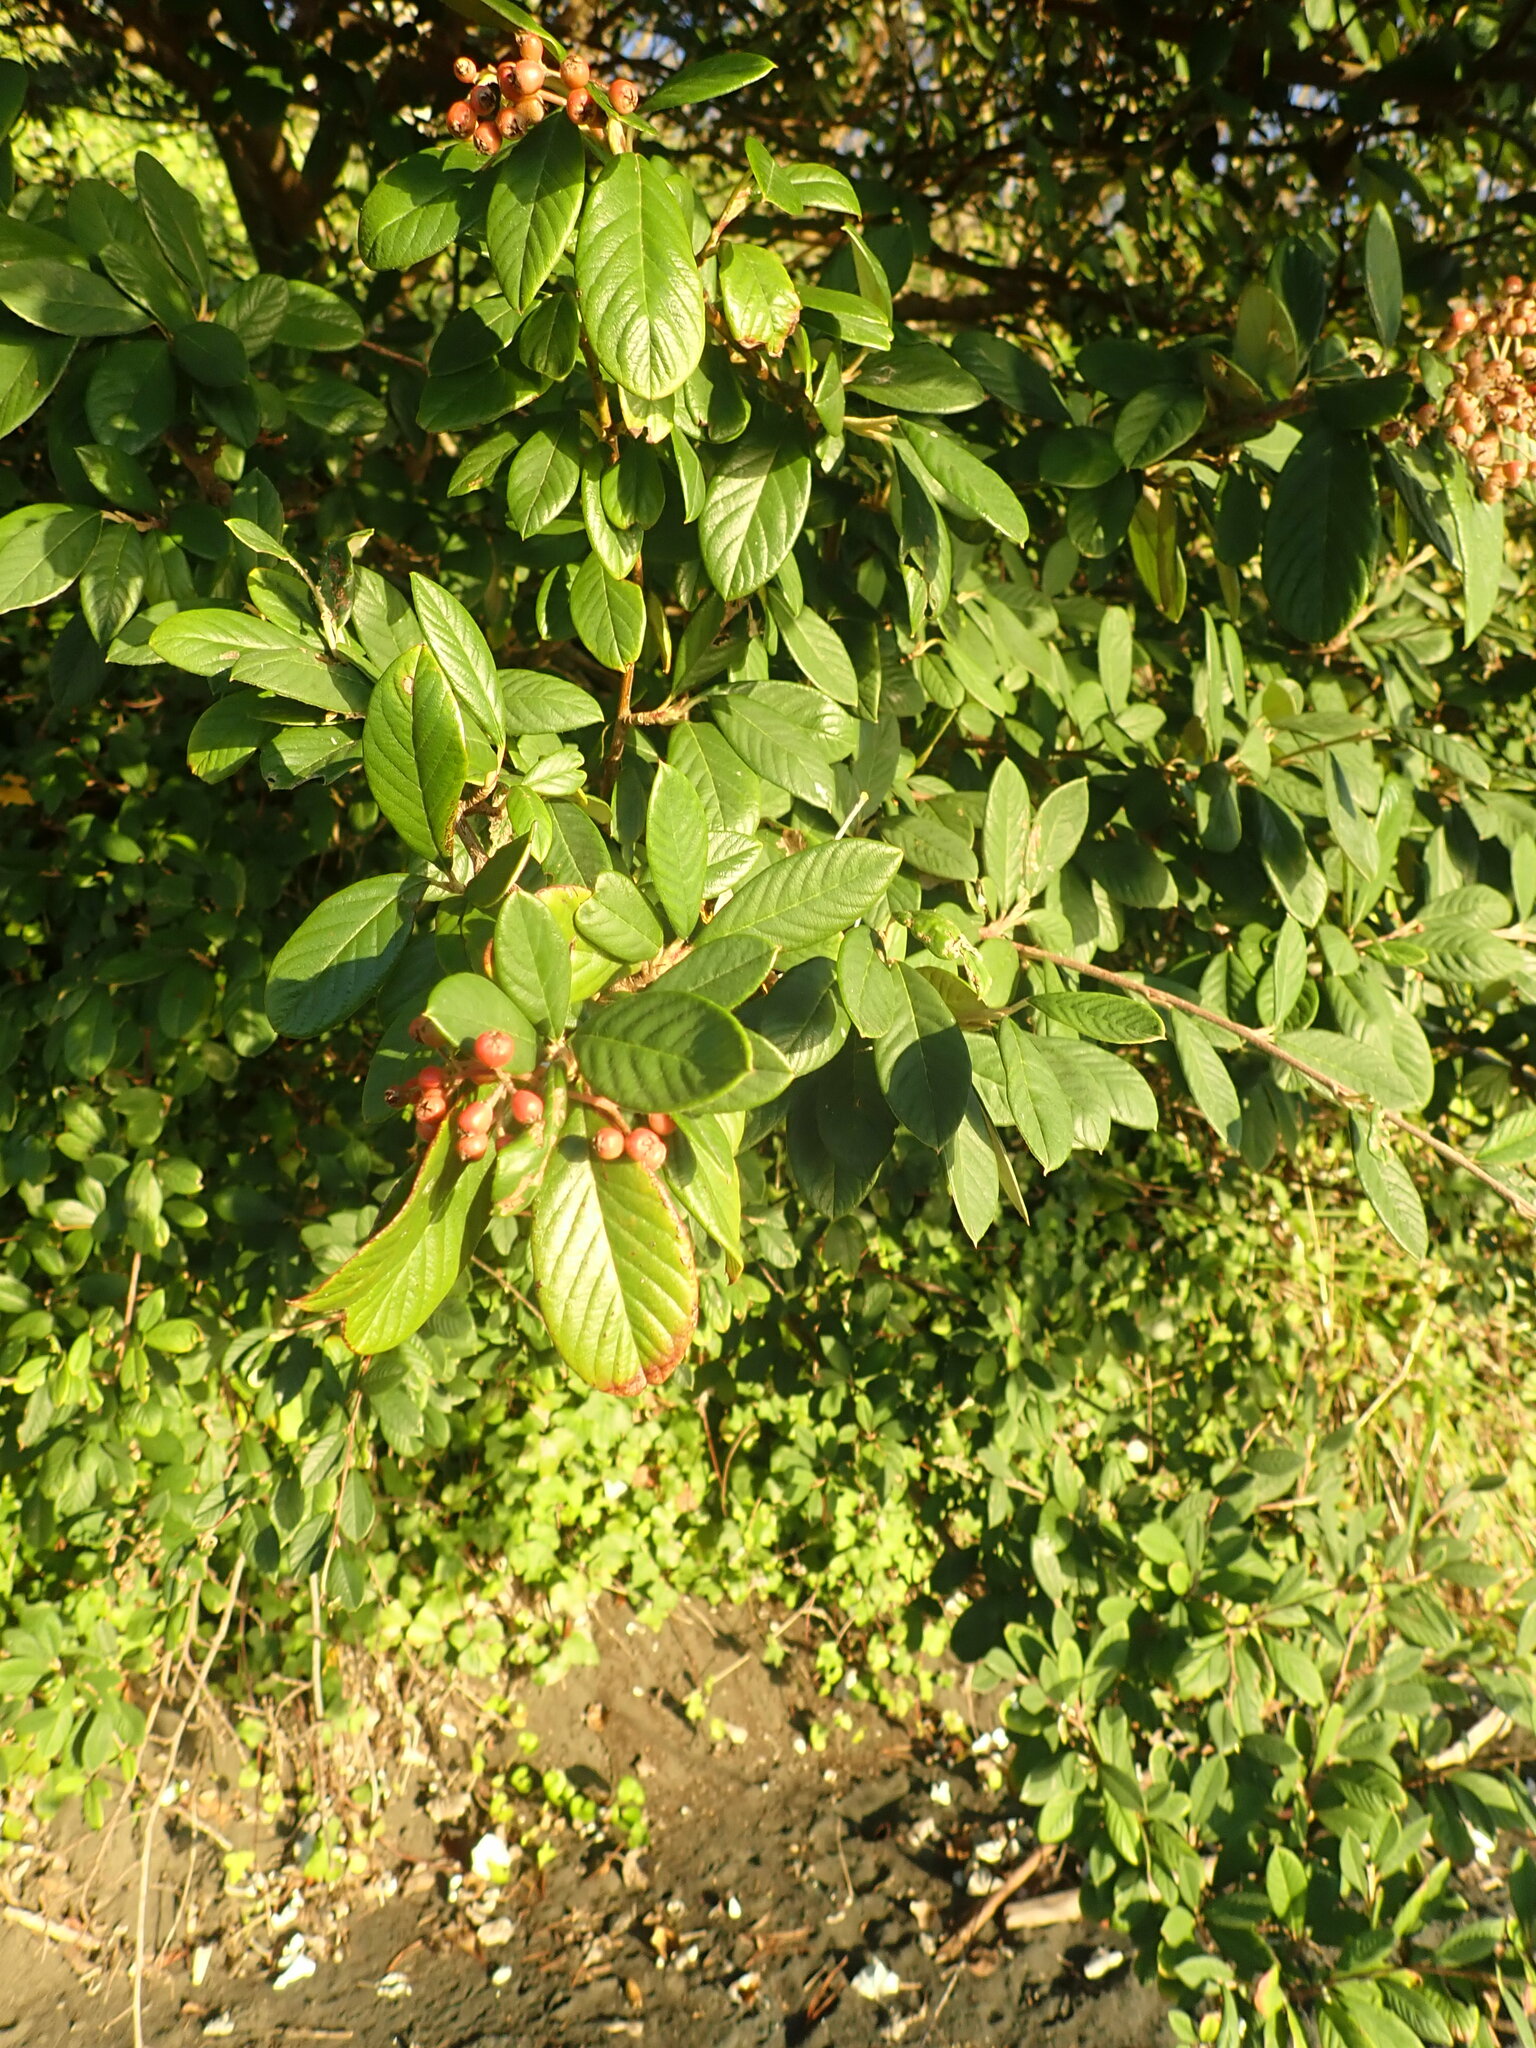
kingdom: Plantae
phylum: Tracheophyta
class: Magnoliopsida
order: Rosales
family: Rosaceae
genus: Cotoneaster
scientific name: Cotoneaster coriaceus
